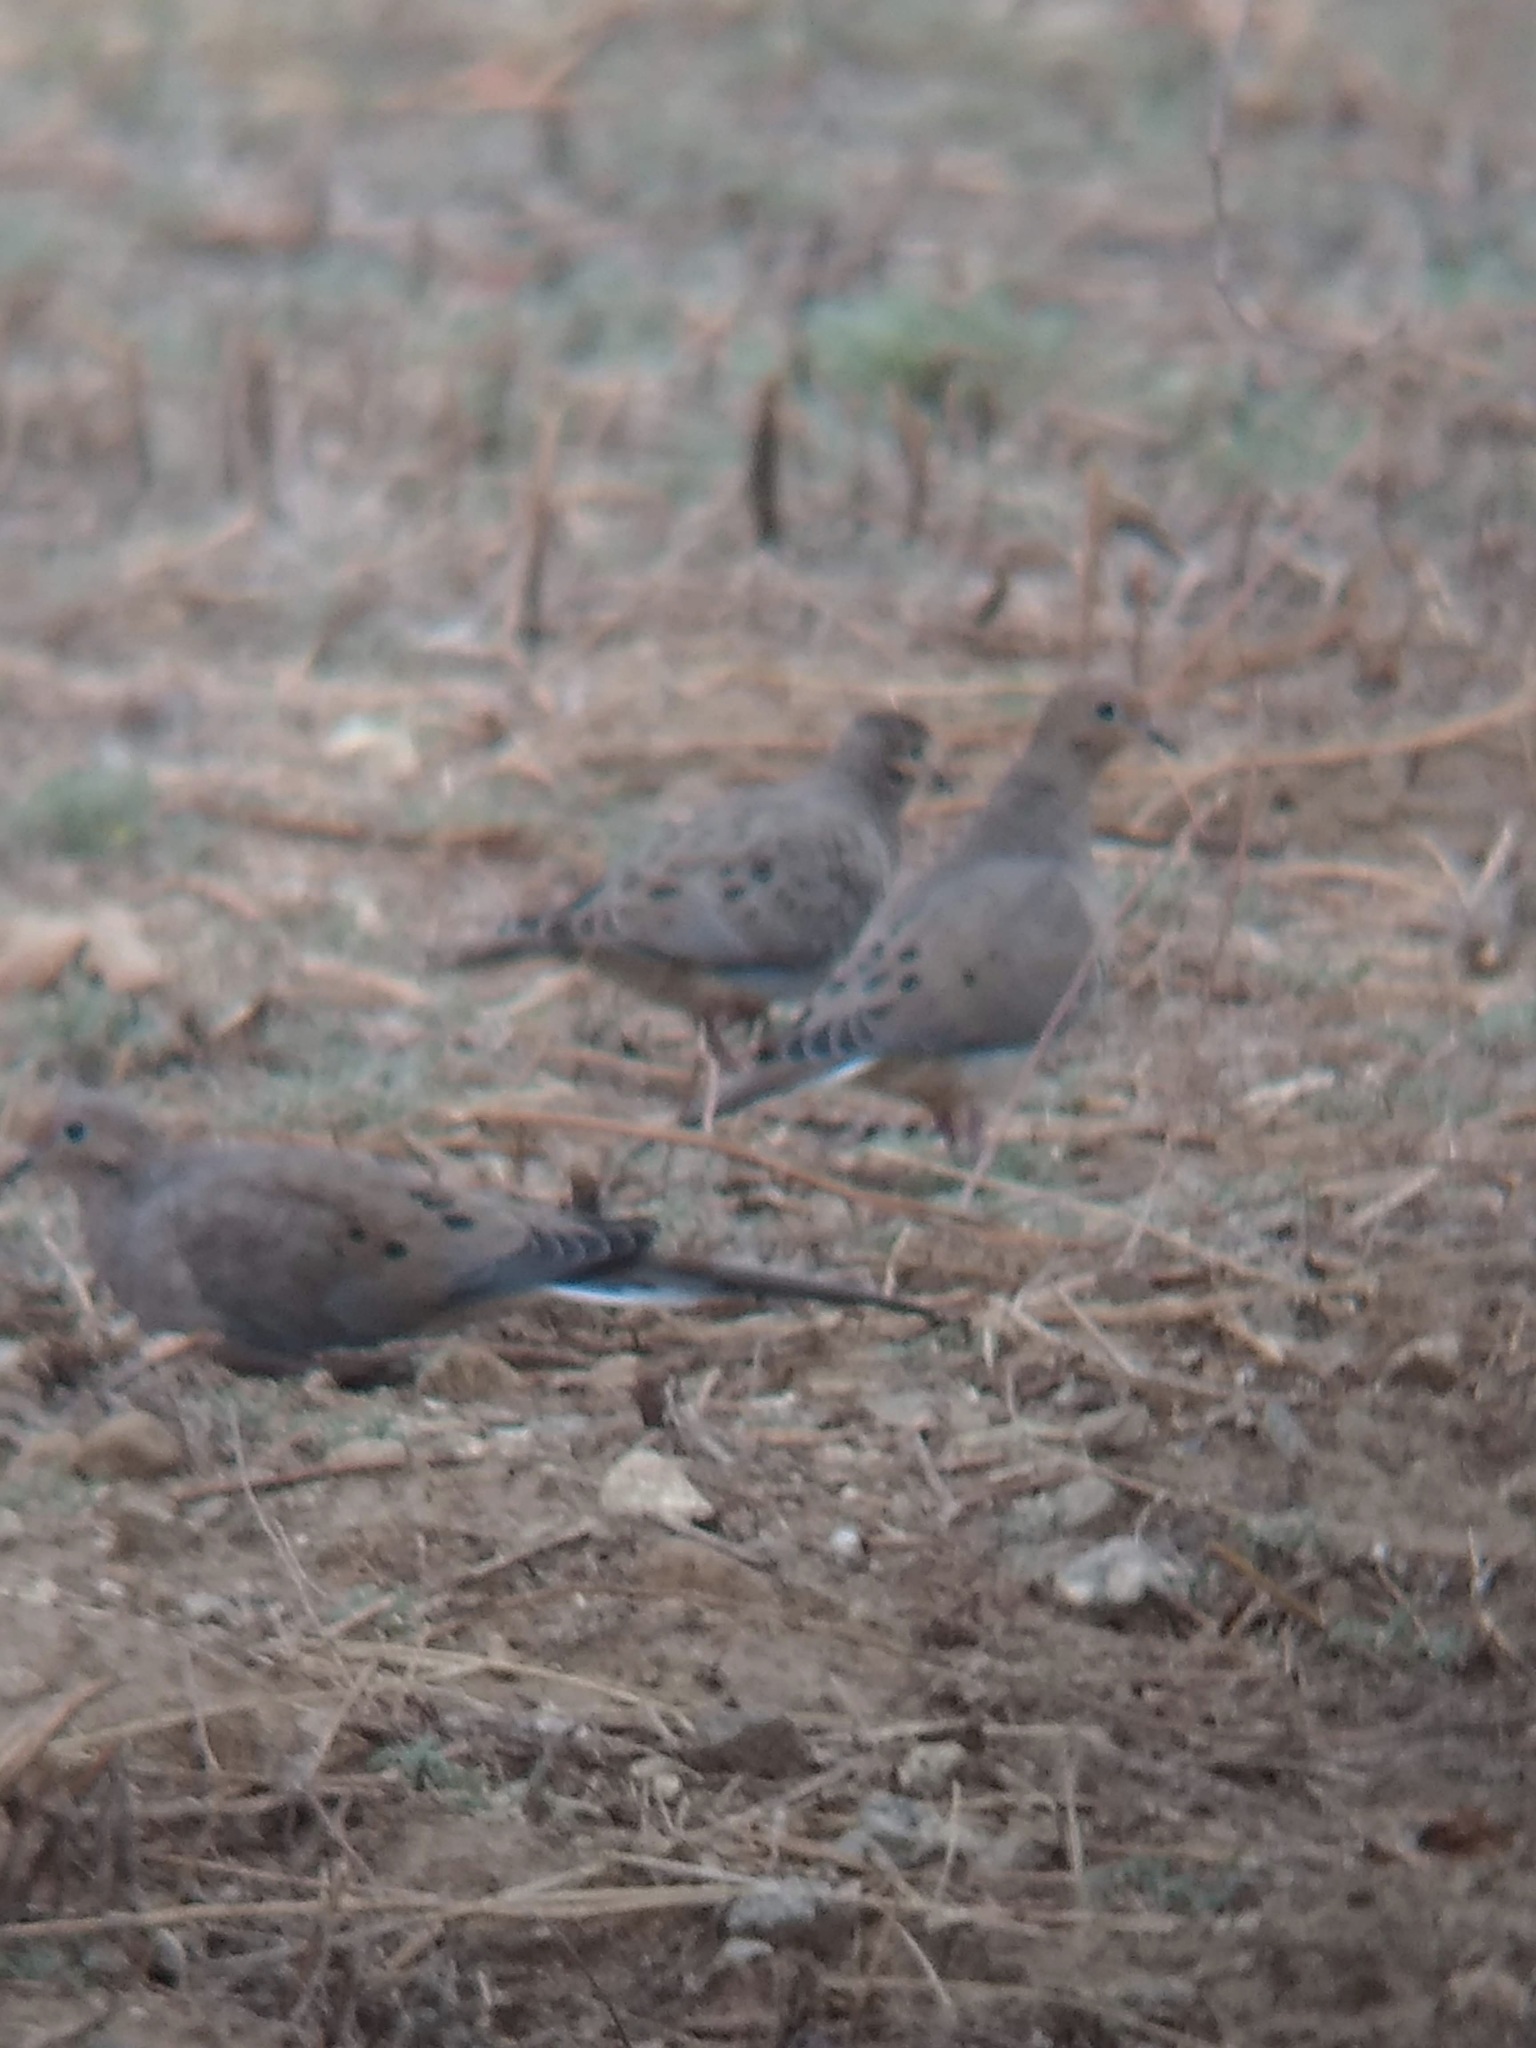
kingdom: Animalia
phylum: Chordata
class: Aves
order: Columbiformes
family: Columbidae
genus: Zenaida
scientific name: Zenaida macroura
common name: Mourning dove
